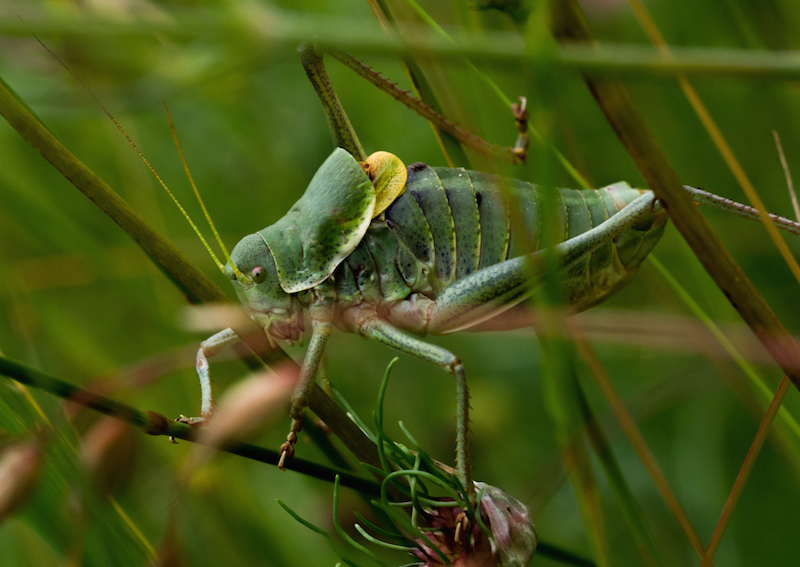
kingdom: Animalia
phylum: Arthropoda
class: Insecta
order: Orthoptera
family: Tettigoniidae
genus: Polysarcus
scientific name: Polysarcus denticauda
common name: Large saw-tailed bush-cricket
